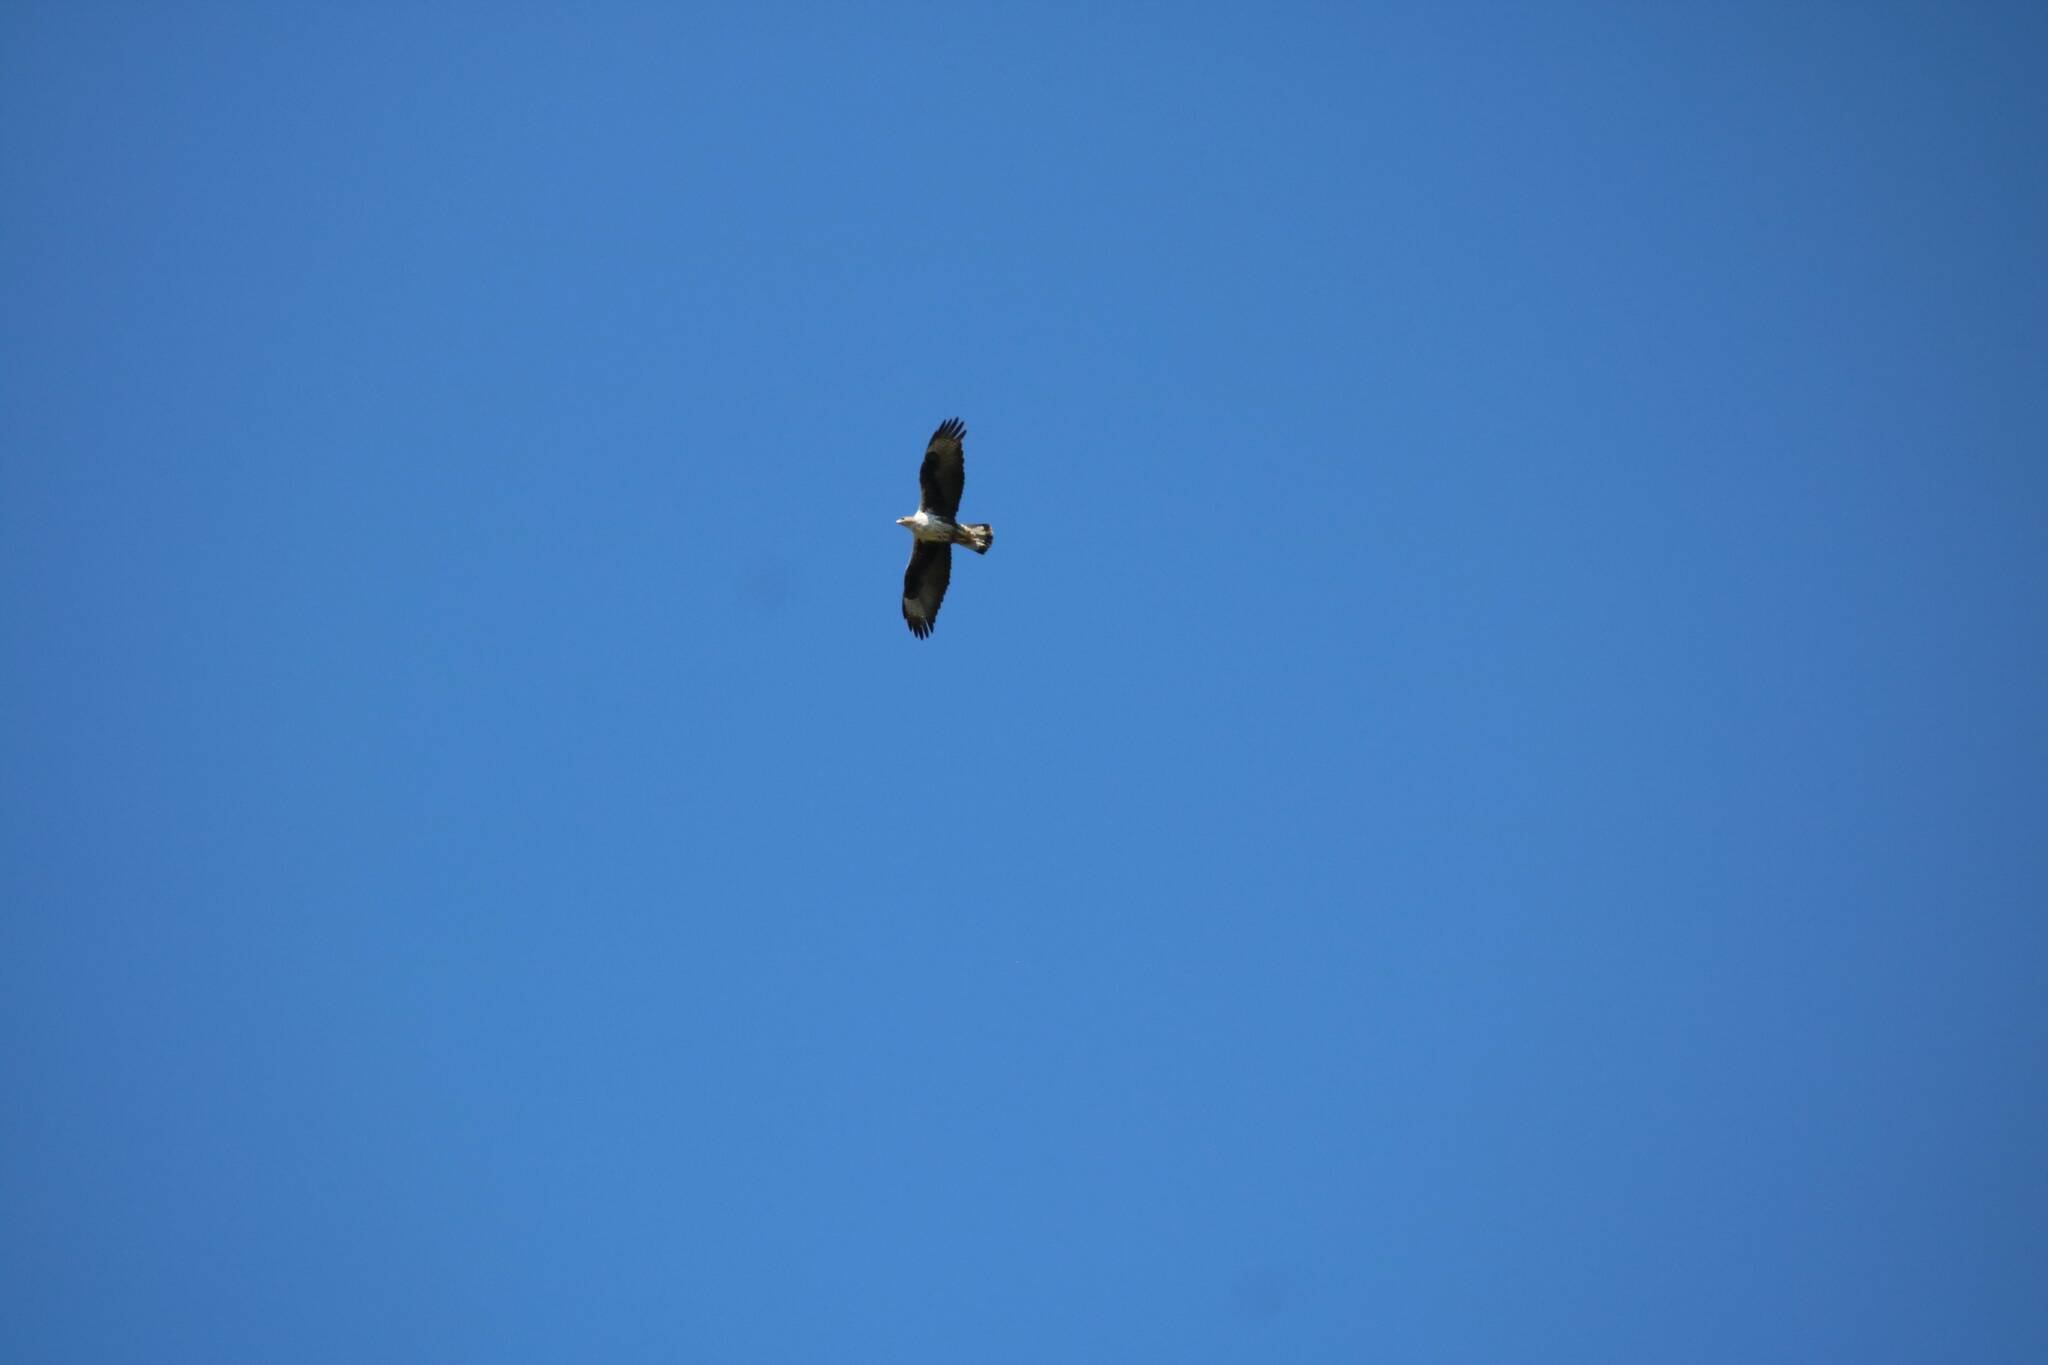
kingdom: Animalia
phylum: Chordata
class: Aves
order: Accipitriformes
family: Accipitridae
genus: Aquila
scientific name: Aquila fasciata
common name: Bonelli's eagle
